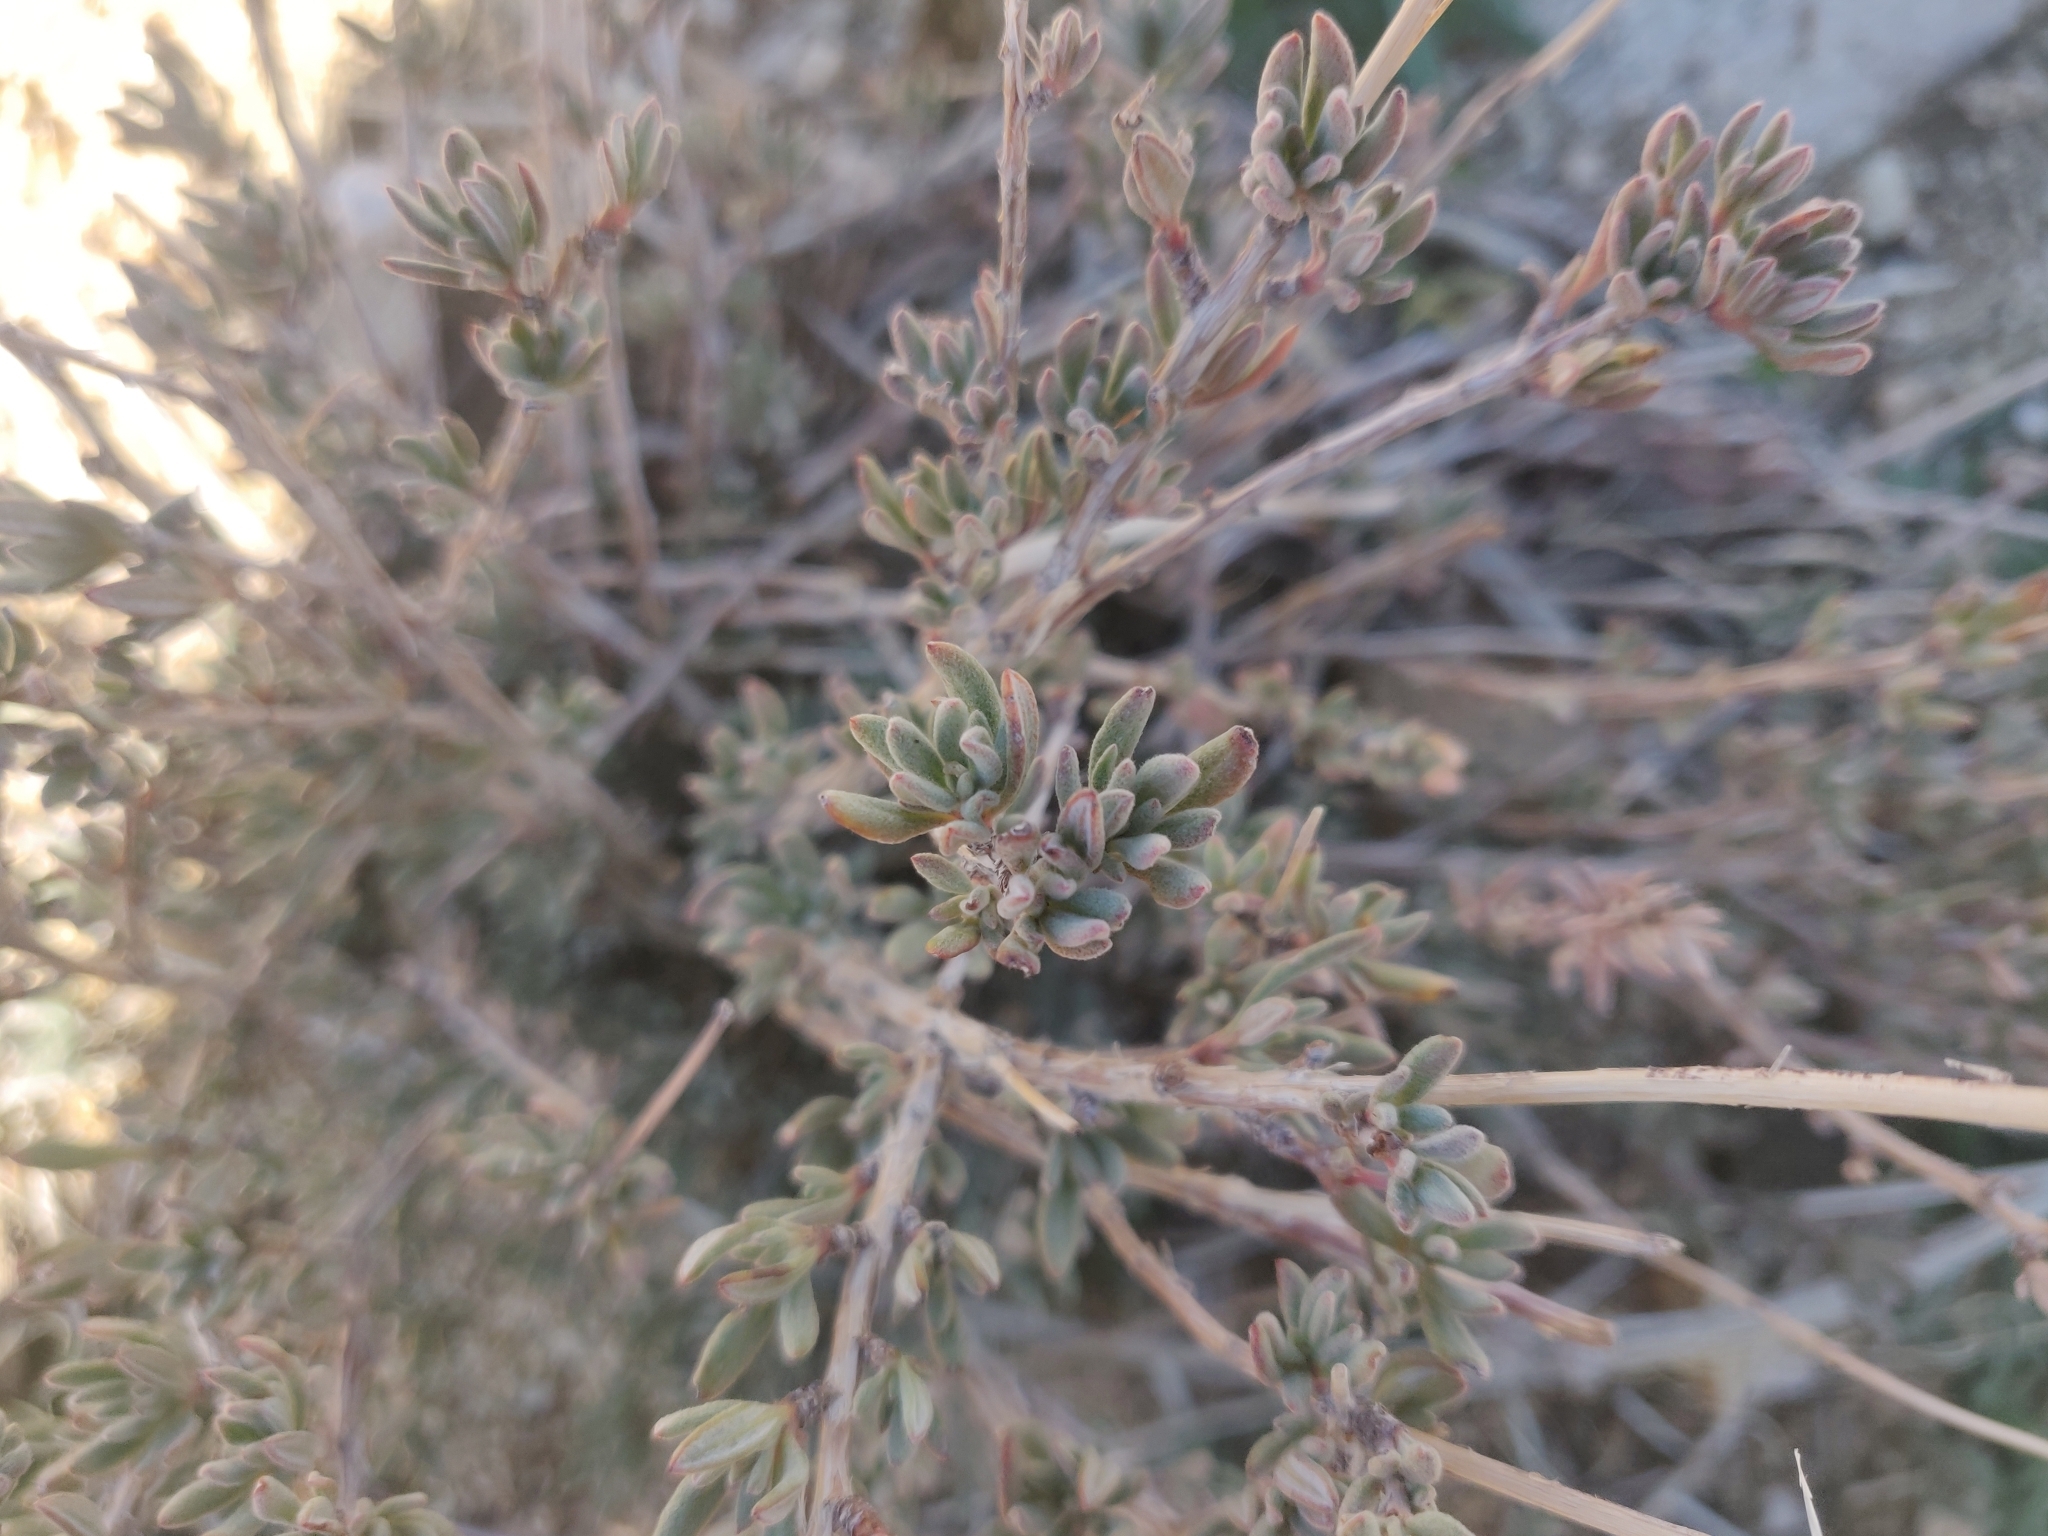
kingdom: Plantae
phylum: Tracheophyta
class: Magnoliopsida
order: Caryophyllales
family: Polygonaceae
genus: Eriogonum
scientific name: Eriogonum fasciculatum
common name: California wild buckwheat
